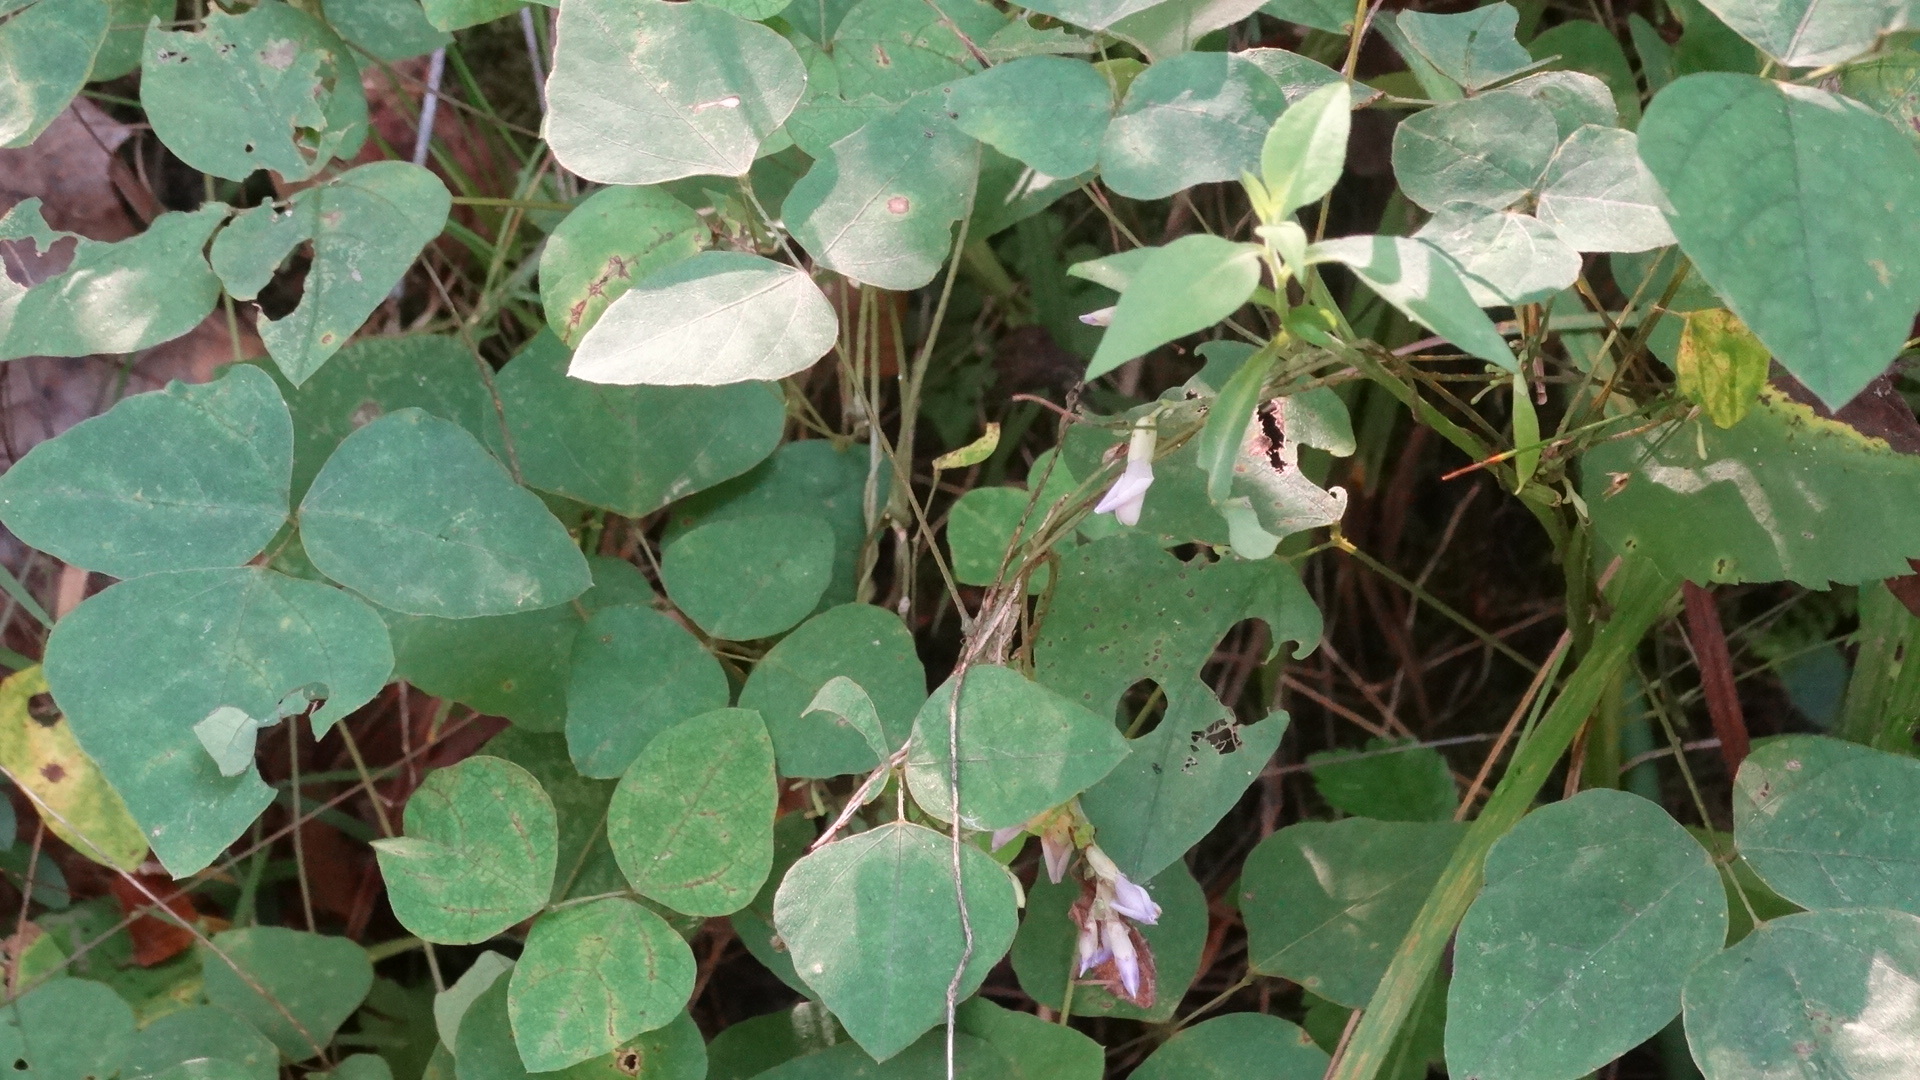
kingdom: Plantae
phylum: Tracheophyta
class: Magnoliopsida
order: Fabales
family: Fabaceae
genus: Amphicarpaea
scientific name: Amphicarpaea bracteata
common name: American hog peanut
